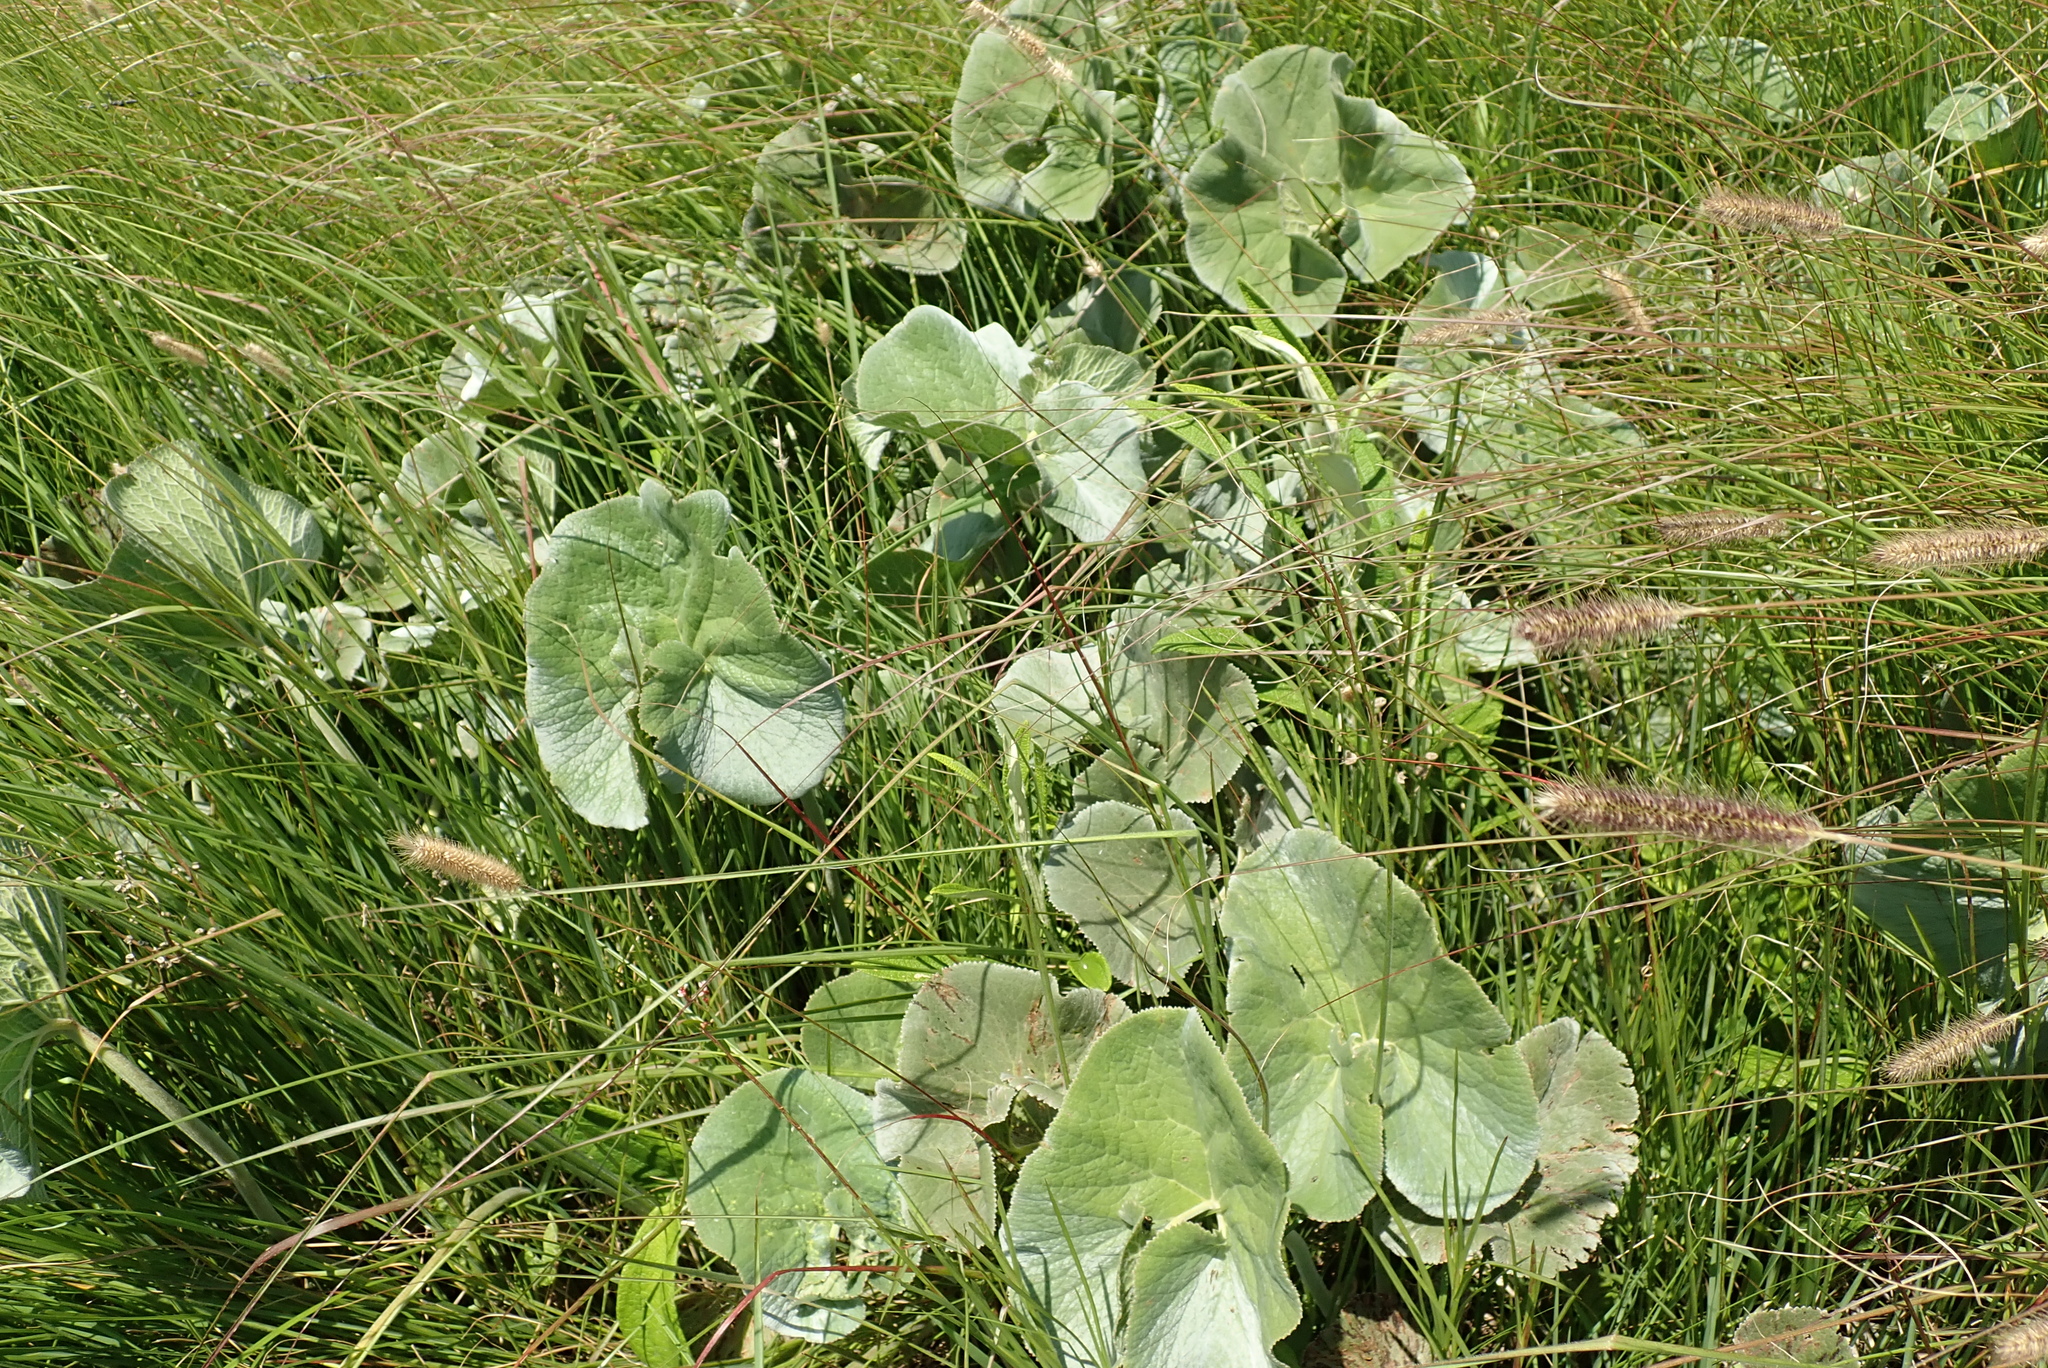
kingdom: Plantae
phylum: Tracheophyta
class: Magnoliopsida
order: Gunnerales
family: Gunneraceae
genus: Gunnera
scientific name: Gunnera perpensa
